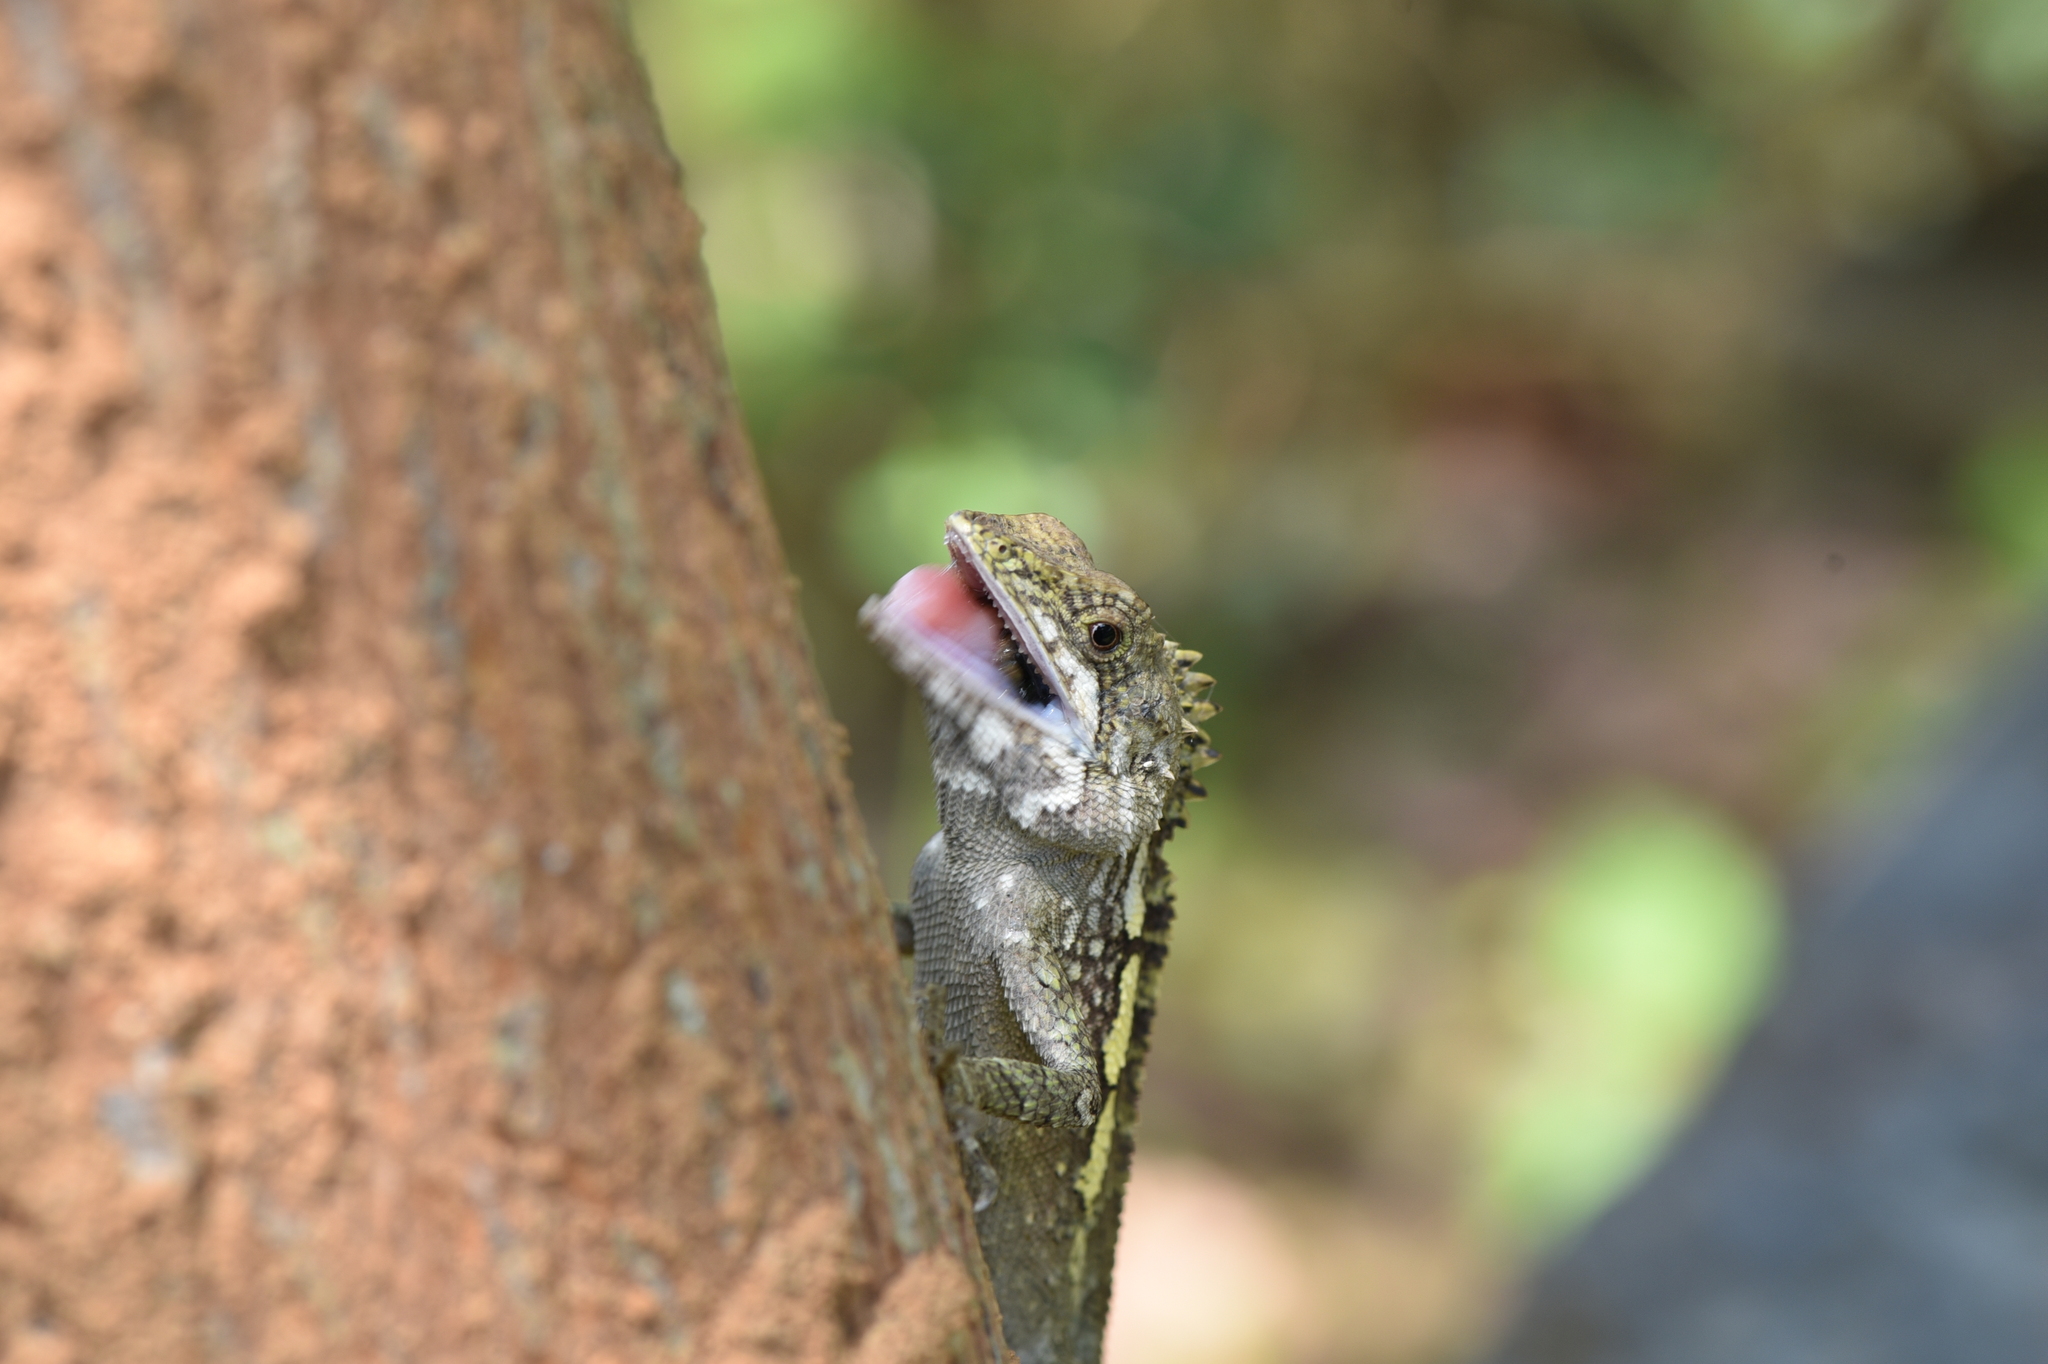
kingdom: Animalia
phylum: Chordata
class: Squamata
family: Agamidae
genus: Diploderma
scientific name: Diploderma swinhonis
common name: Taiwan japalure
